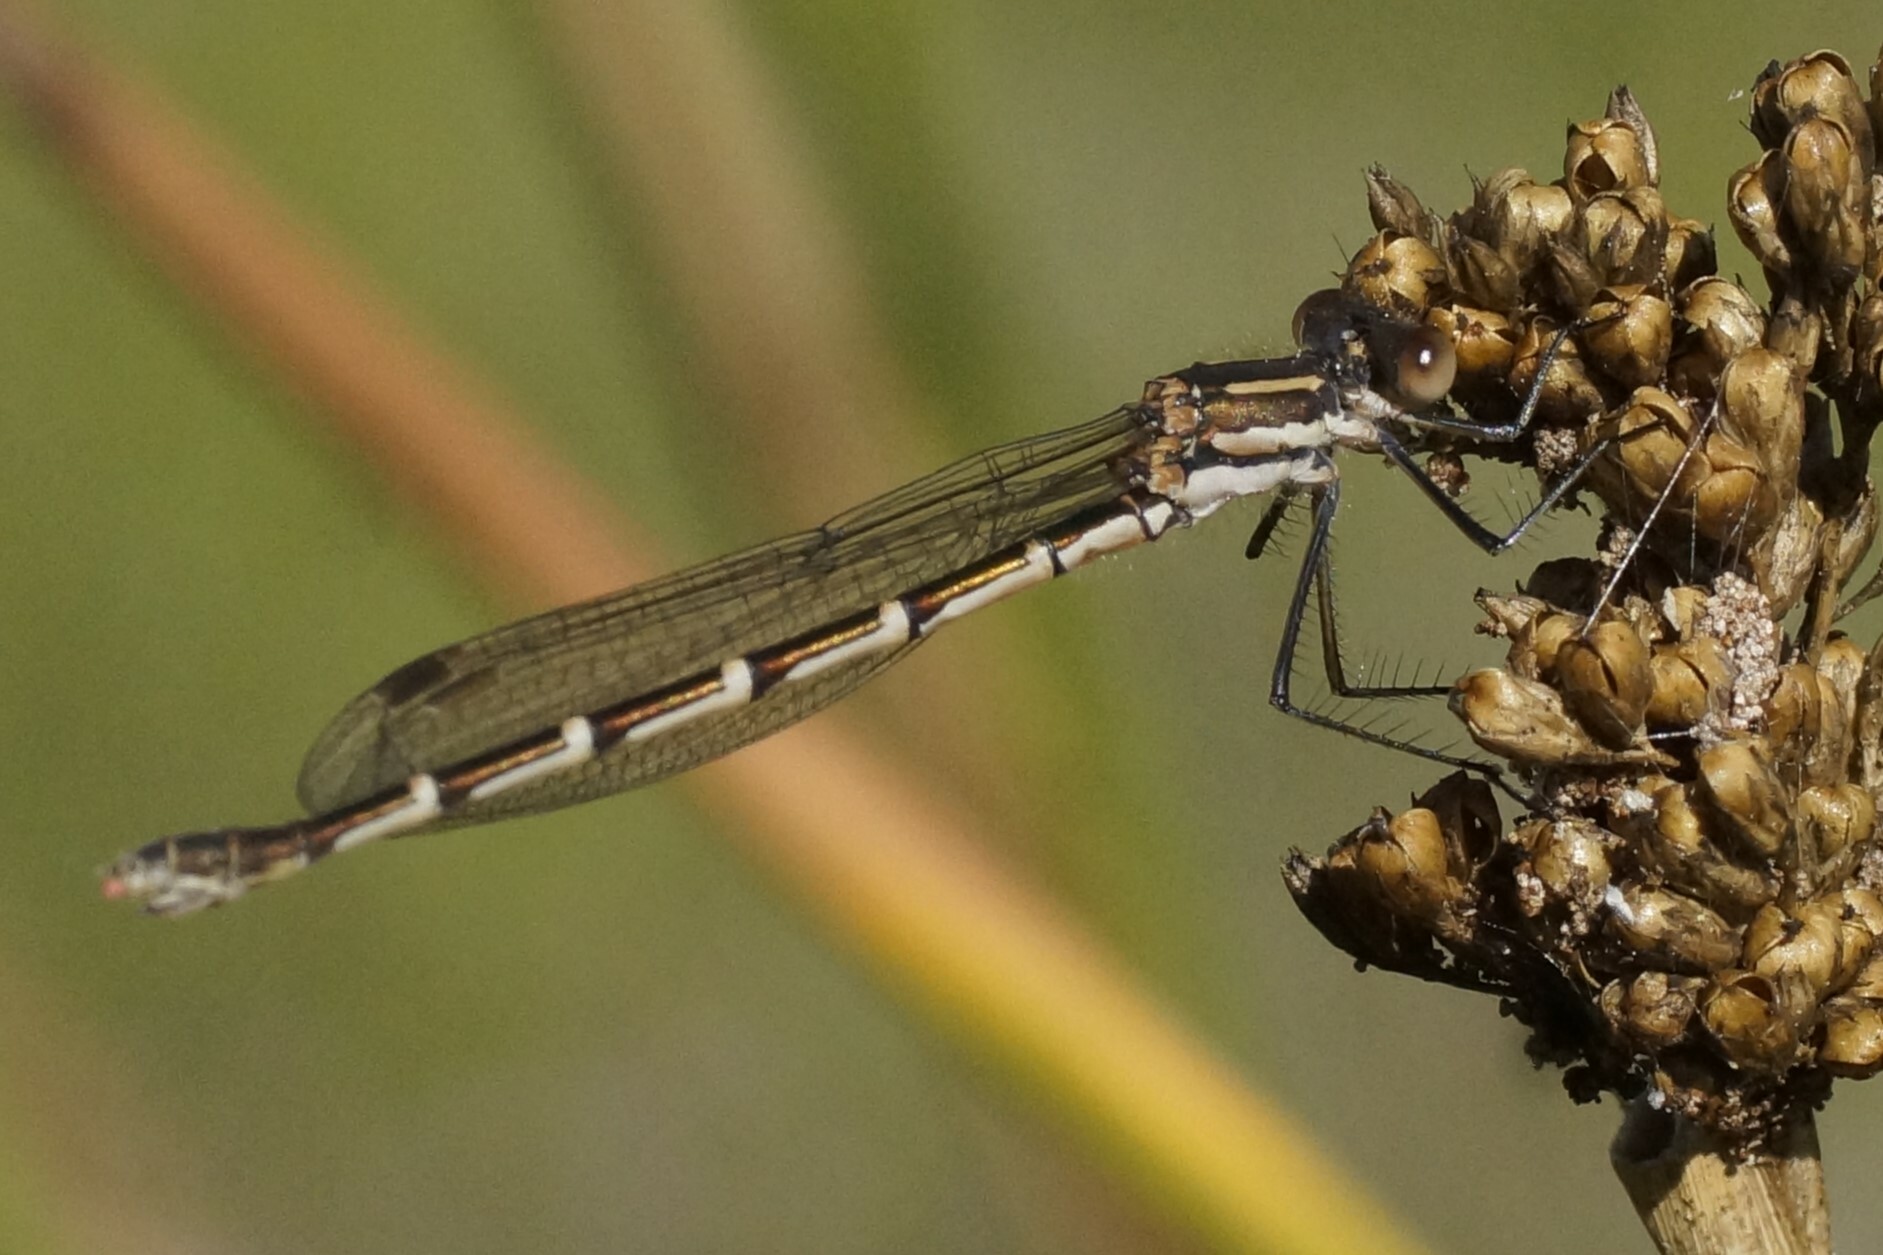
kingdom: Animalia
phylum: Arthropoda
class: Insecta
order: Odonata
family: Lestidae
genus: Austrolestes
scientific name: Austrolestes annulosus
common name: Blue ringtail
